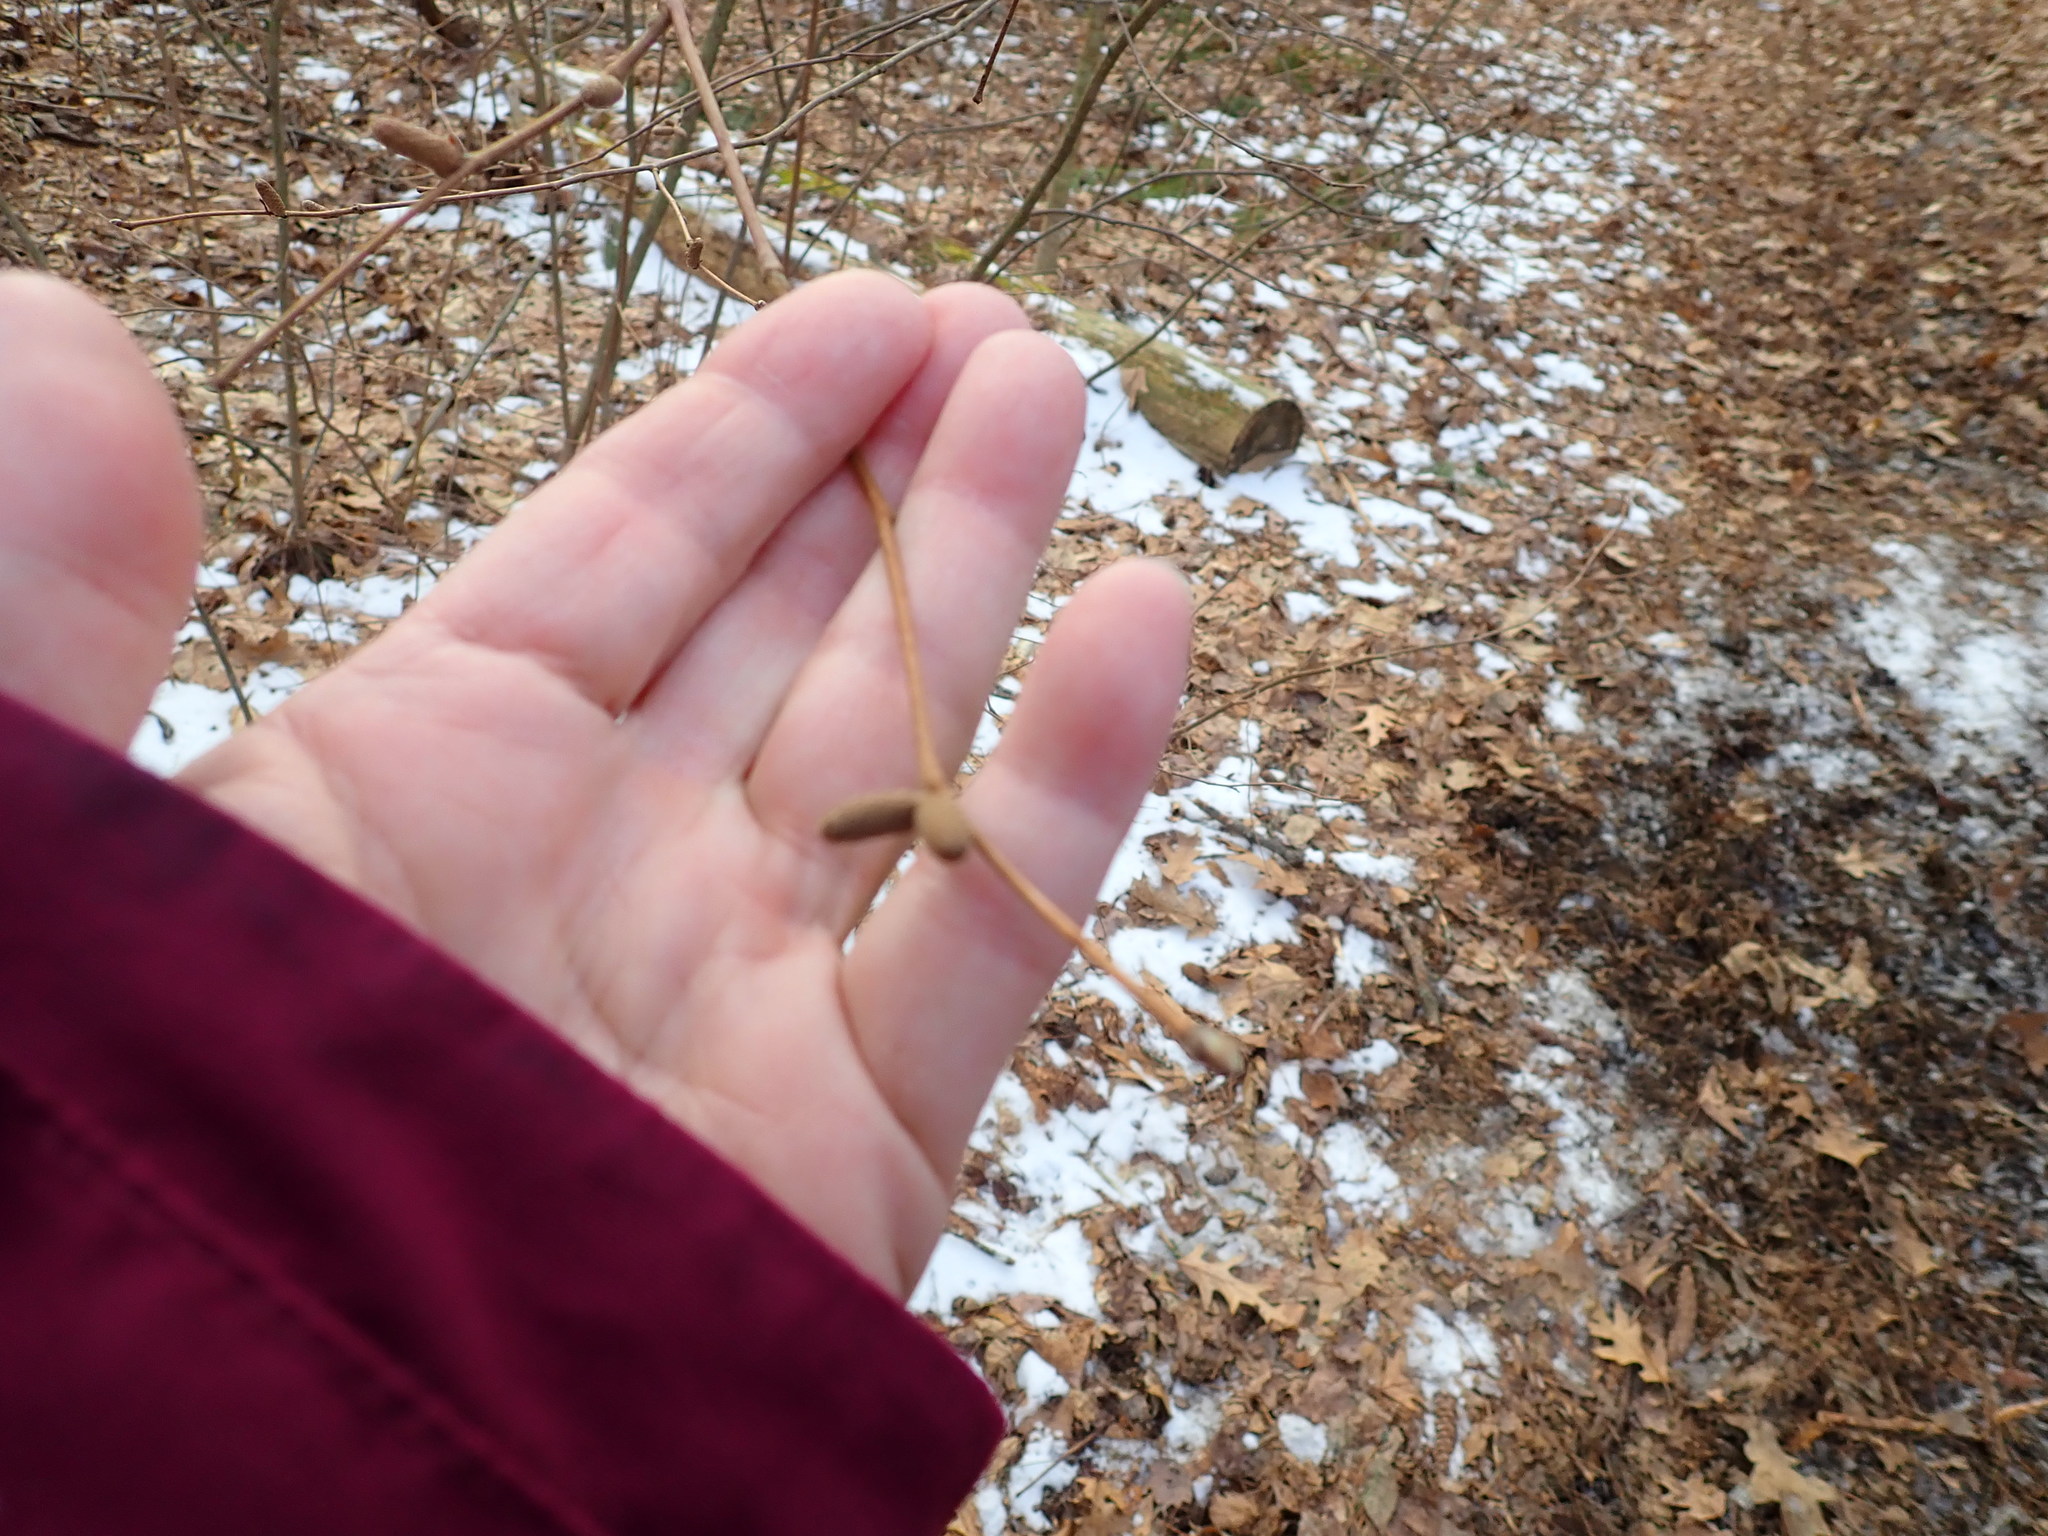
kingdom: Plantae
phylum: Tracheophyta
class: Magnoliopsida
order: Fagales
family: Betulaceae
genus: Corylus
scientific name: Corylus cornuta
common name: Beaked hazel
